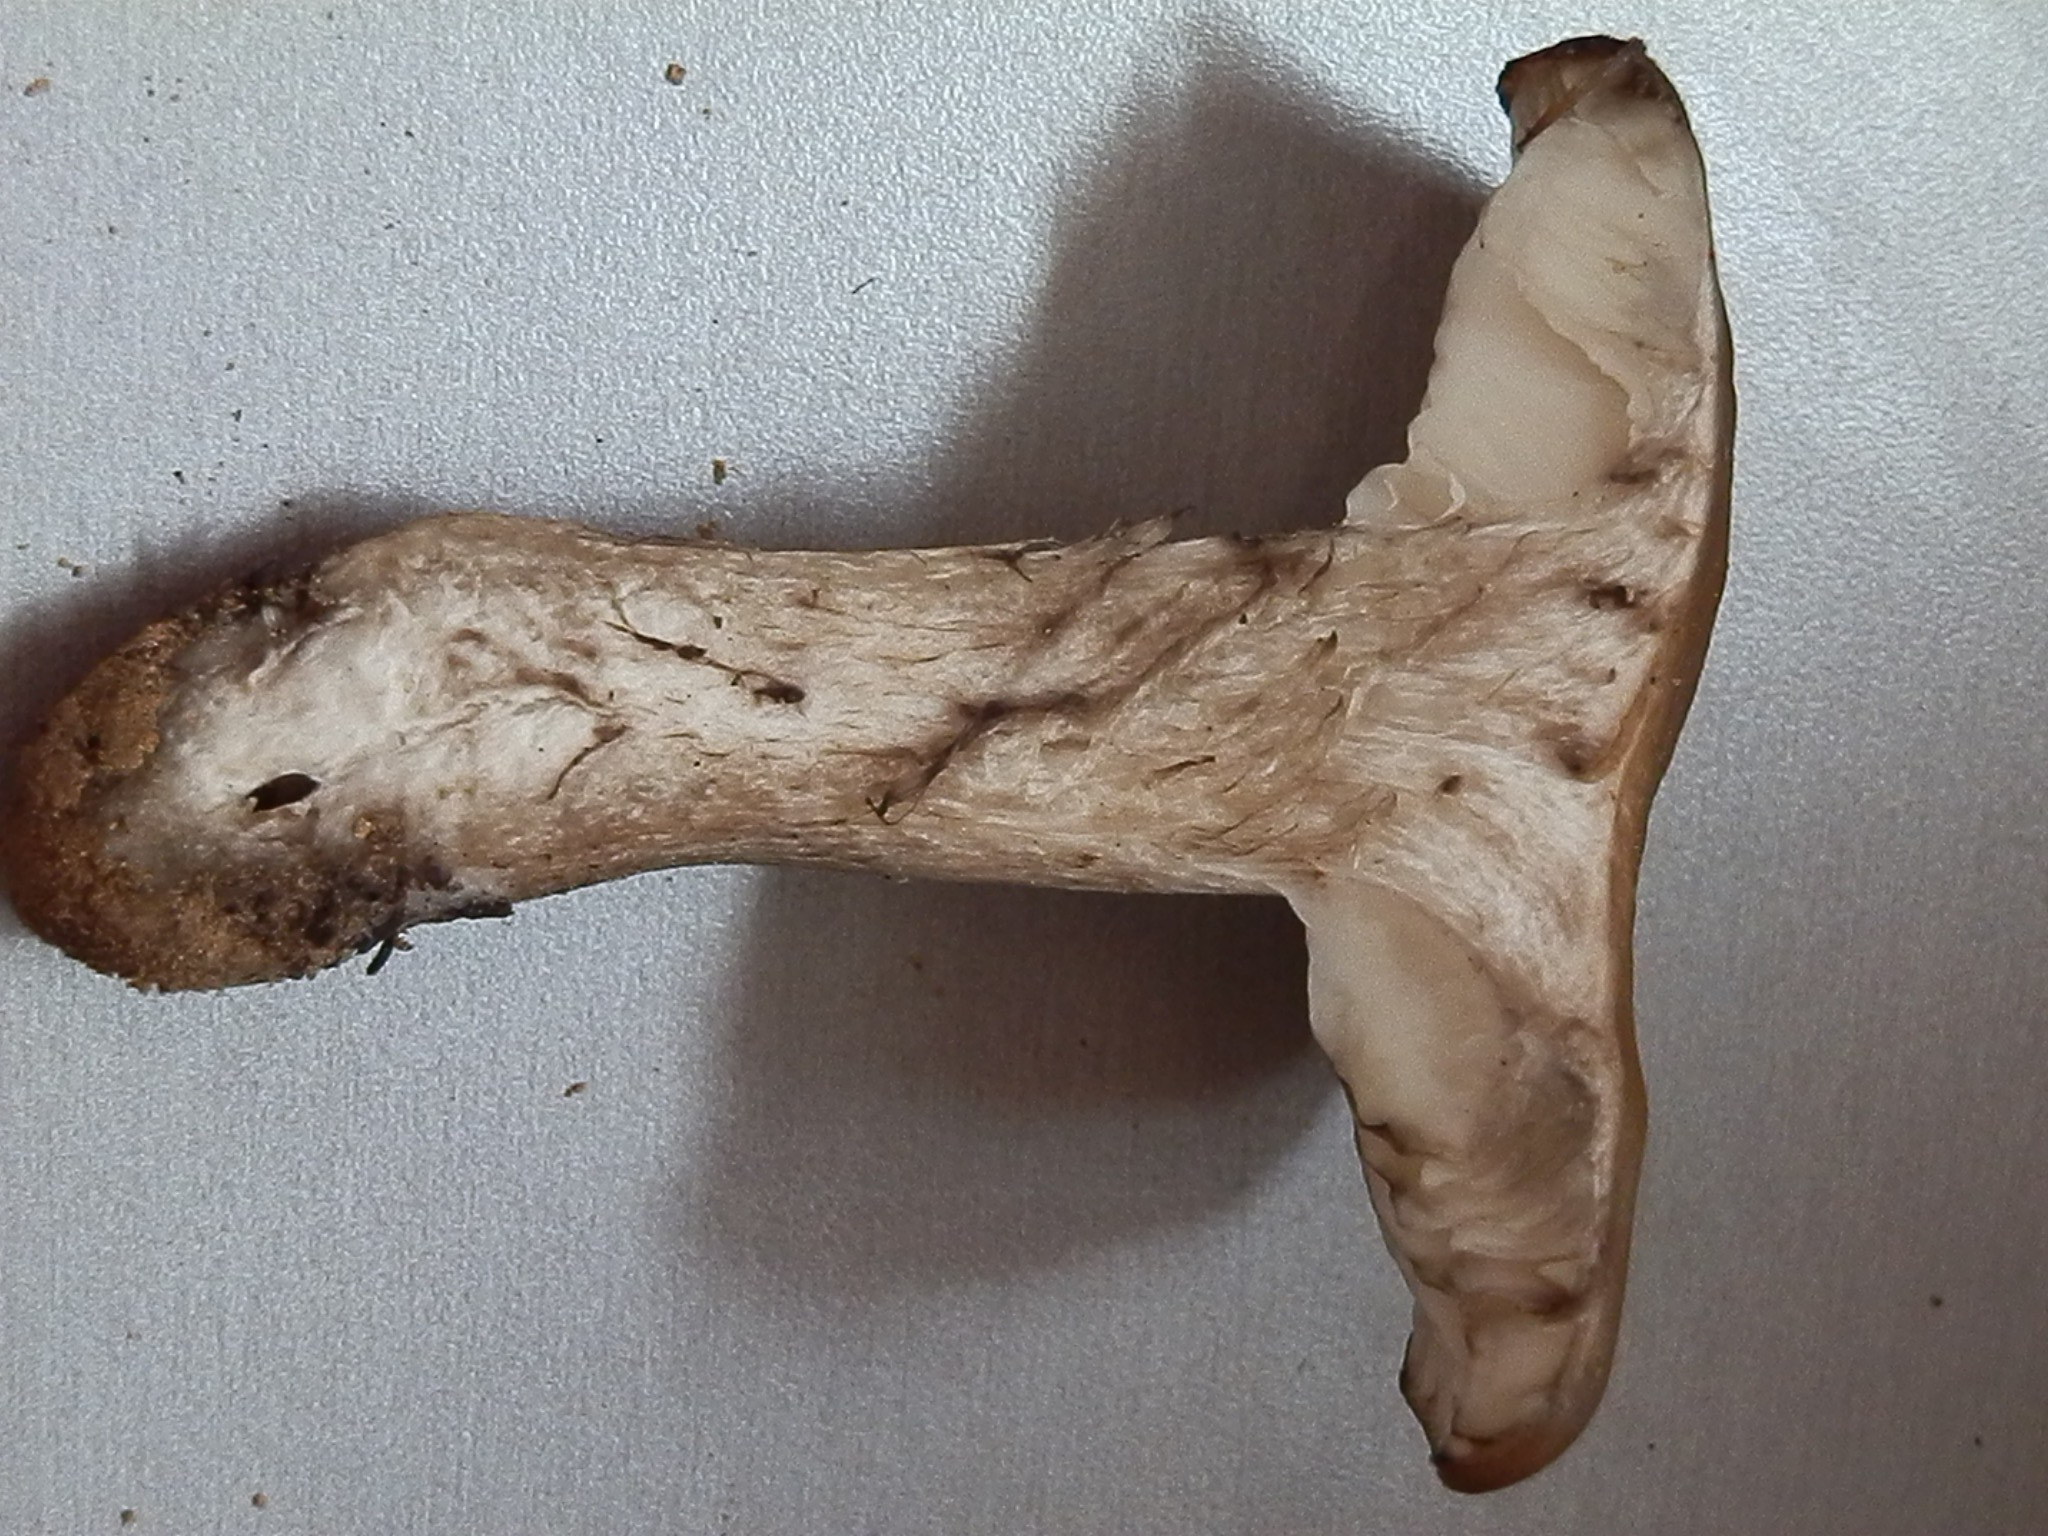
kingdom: Fungi
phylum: Basidiomycota
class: Agaricomycetes
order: Agaricales
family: Lyophyllaceae
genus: Lyophyllum
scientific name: Lyophyllum infumatum
